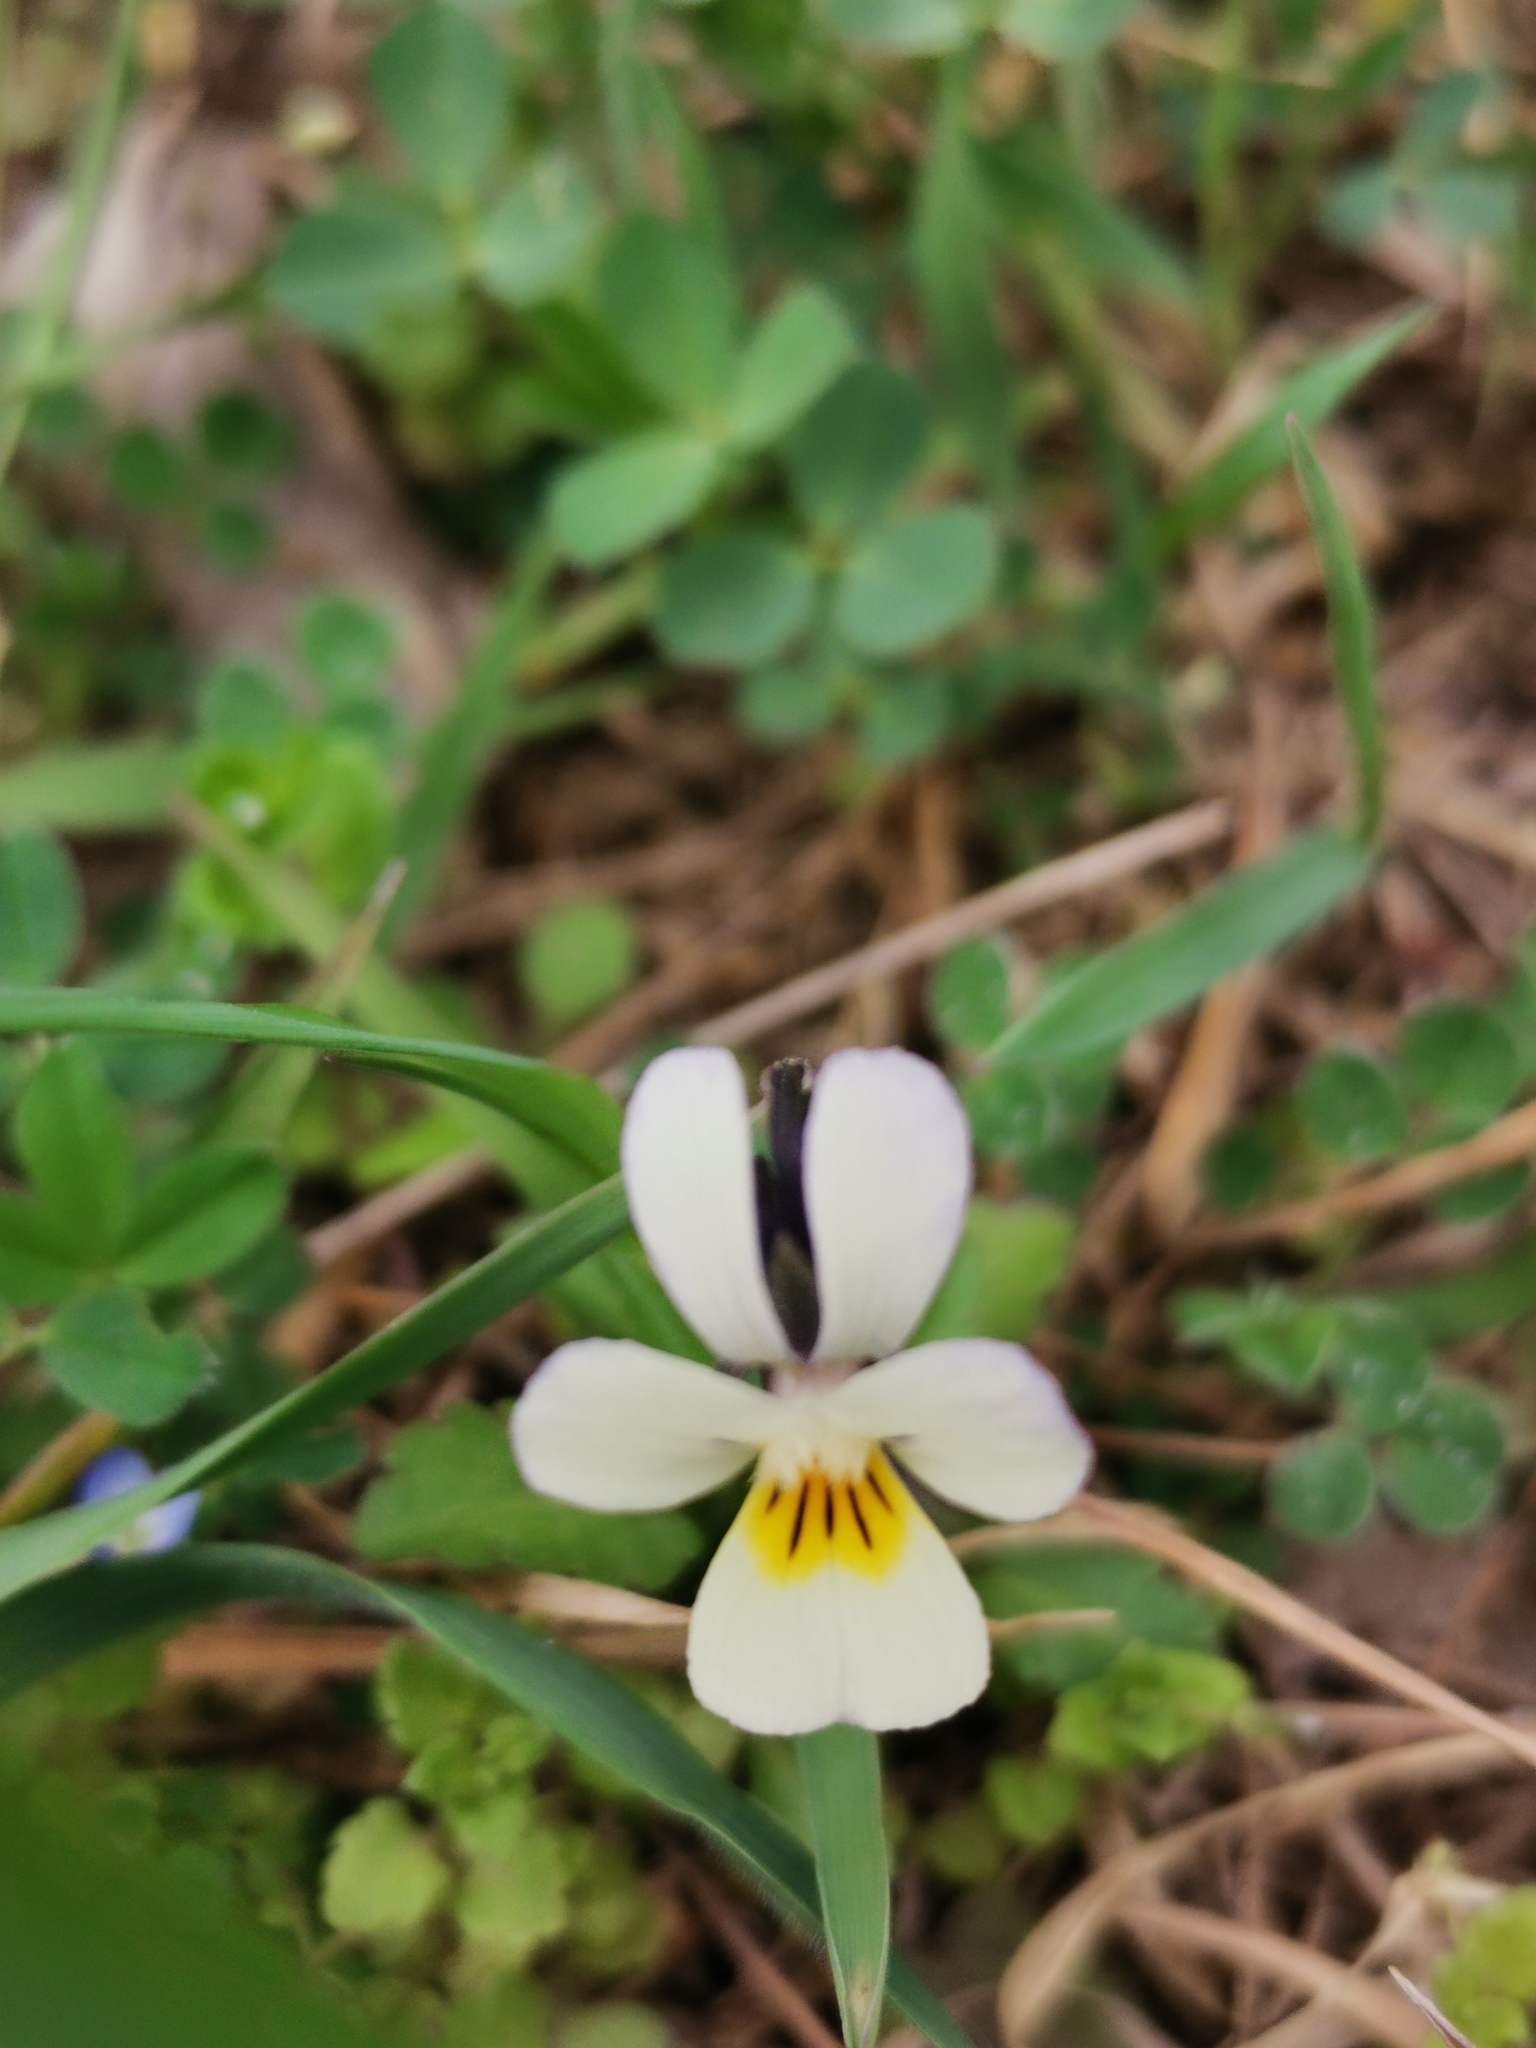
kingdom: Plantae
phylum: Tracheophyta
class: Magnoliopsida
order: Malpighiales
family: Violaceae
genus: Viola
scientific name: Viola arvensis
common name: Field pansy
